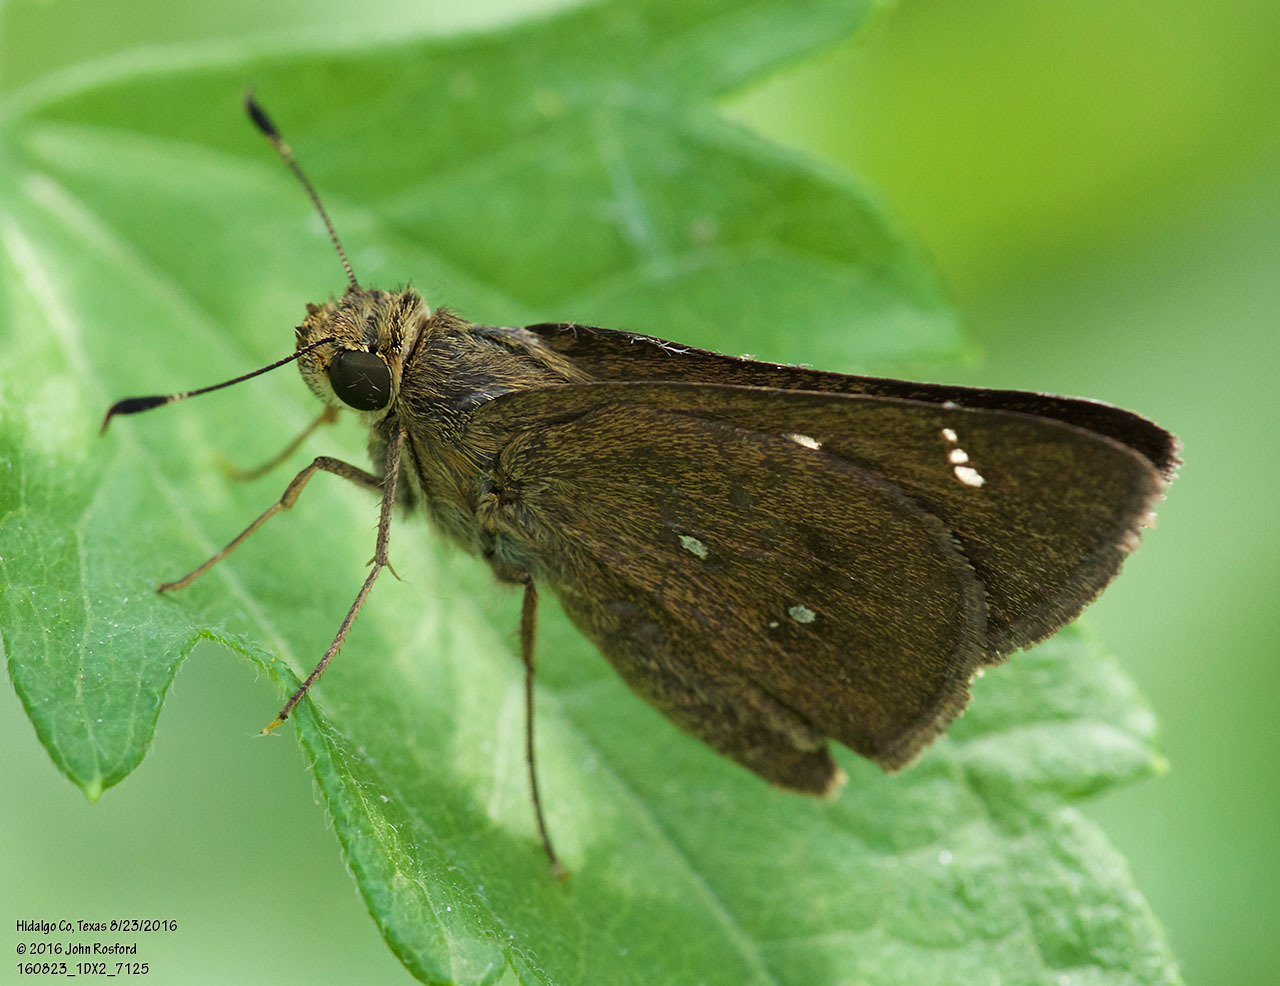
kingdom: Animalia
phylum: Arthropoda
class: Insecta
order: Lepidoptera
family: Hesperiidae
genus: Decinea
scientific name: Decinea percosius
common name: Double-dotted skipper
